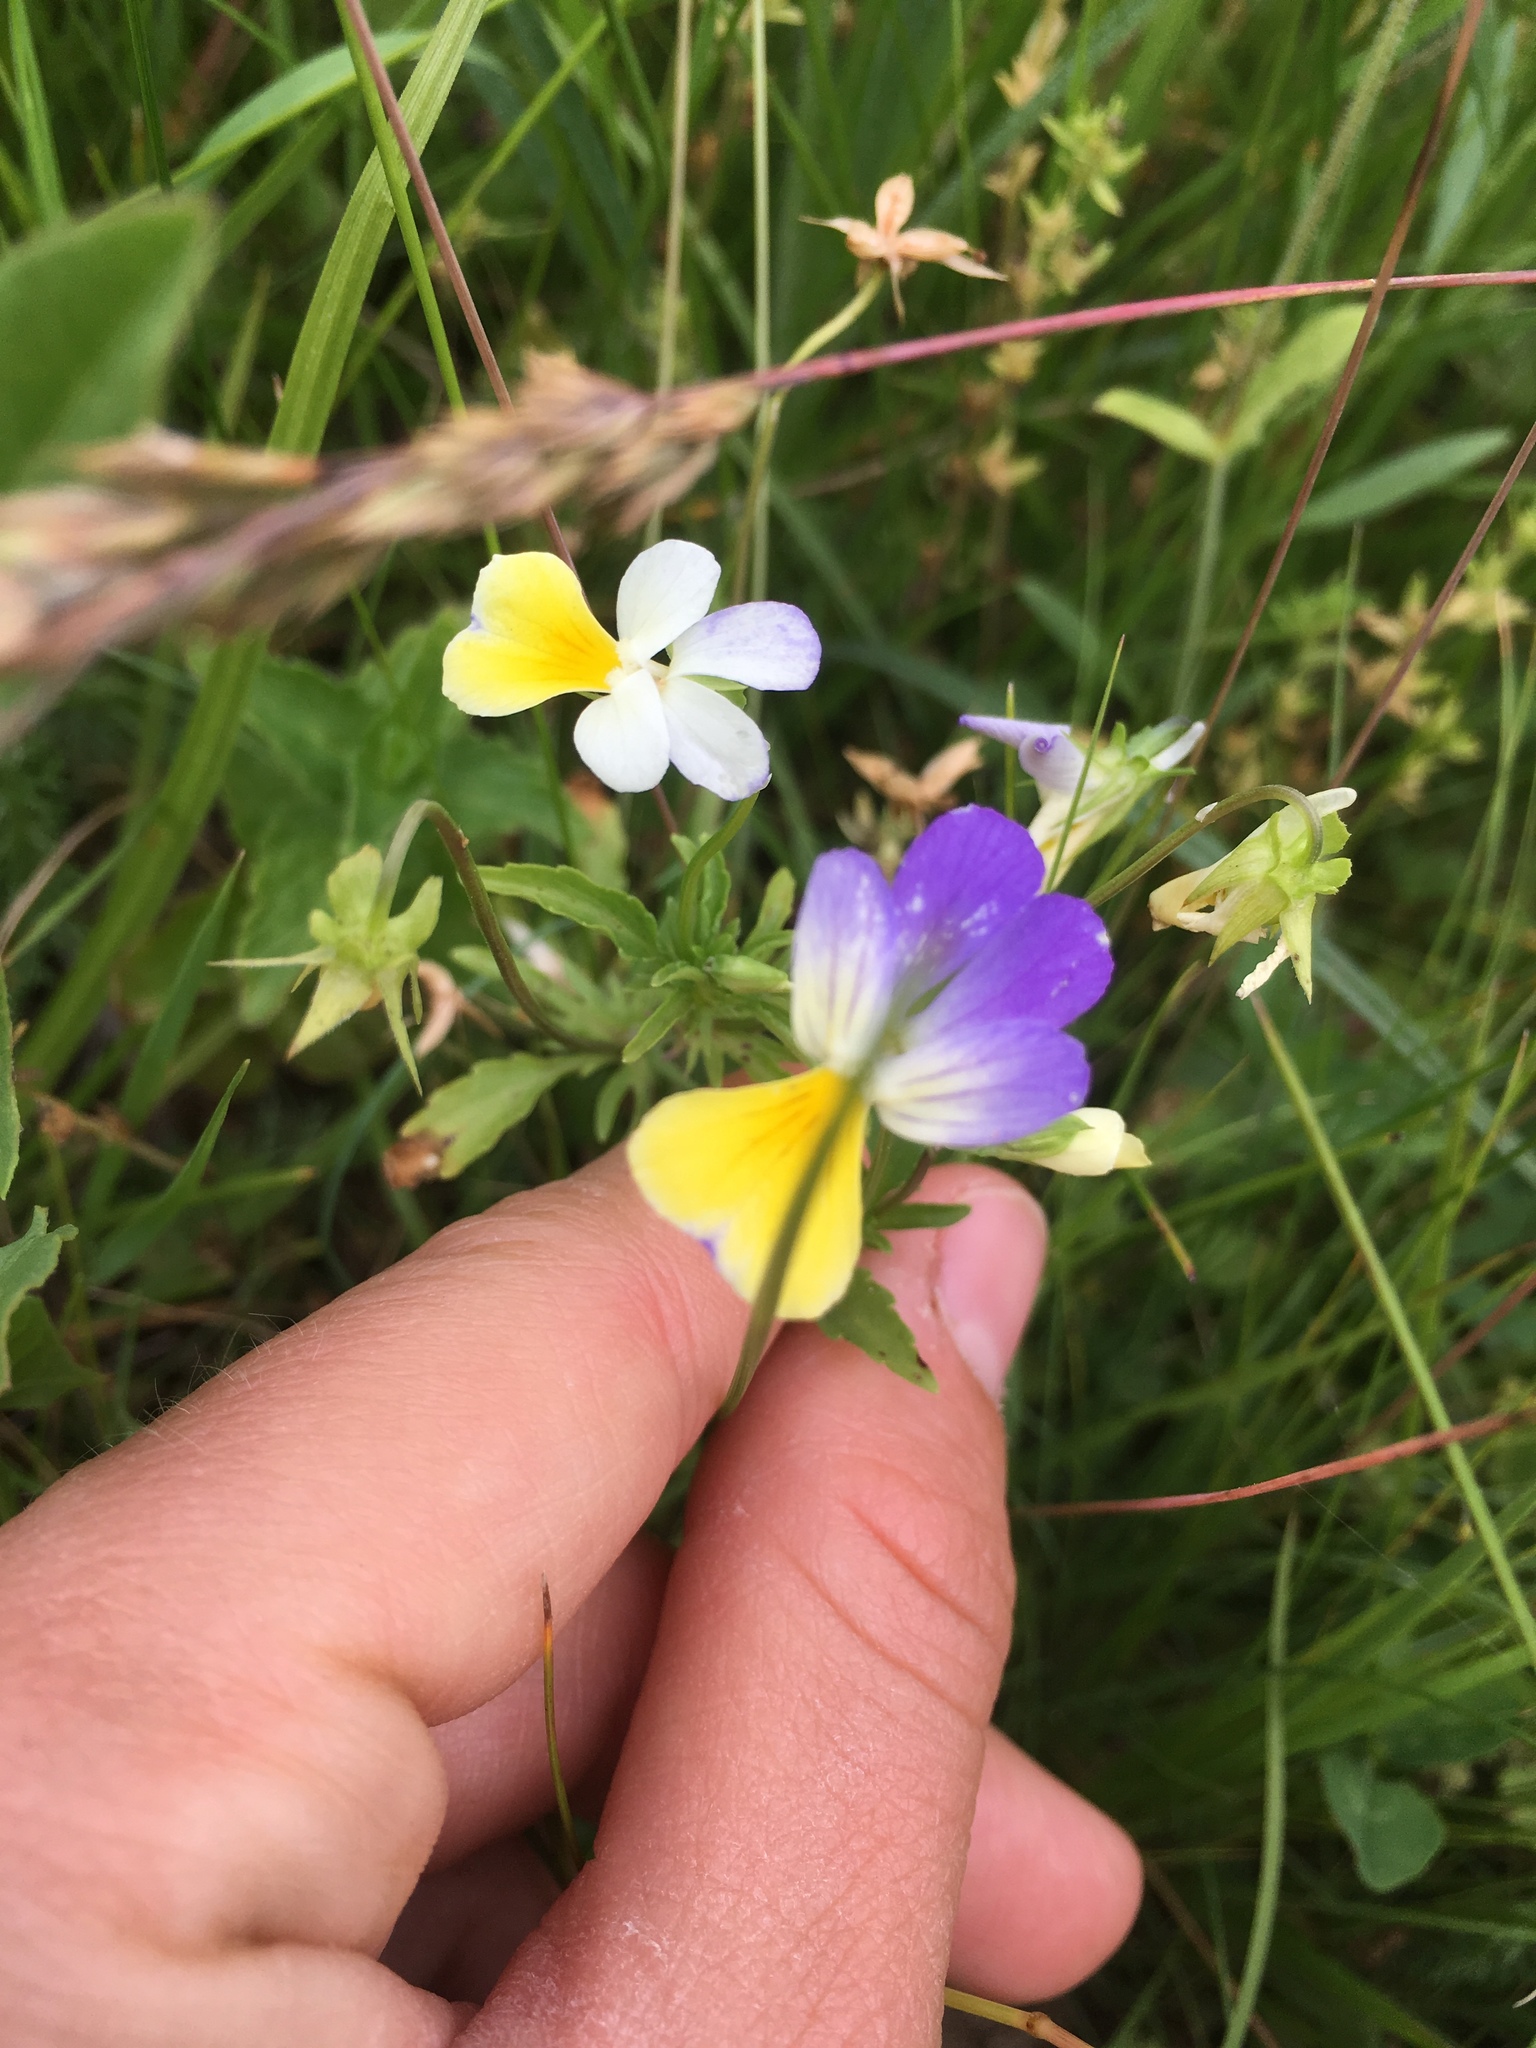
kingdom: Plantae
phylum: Tracheophyta
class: Magnoliopsida
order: Malpighiales
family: Violaceae
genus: Viola
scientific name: Viola tricolor
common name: Pansy
